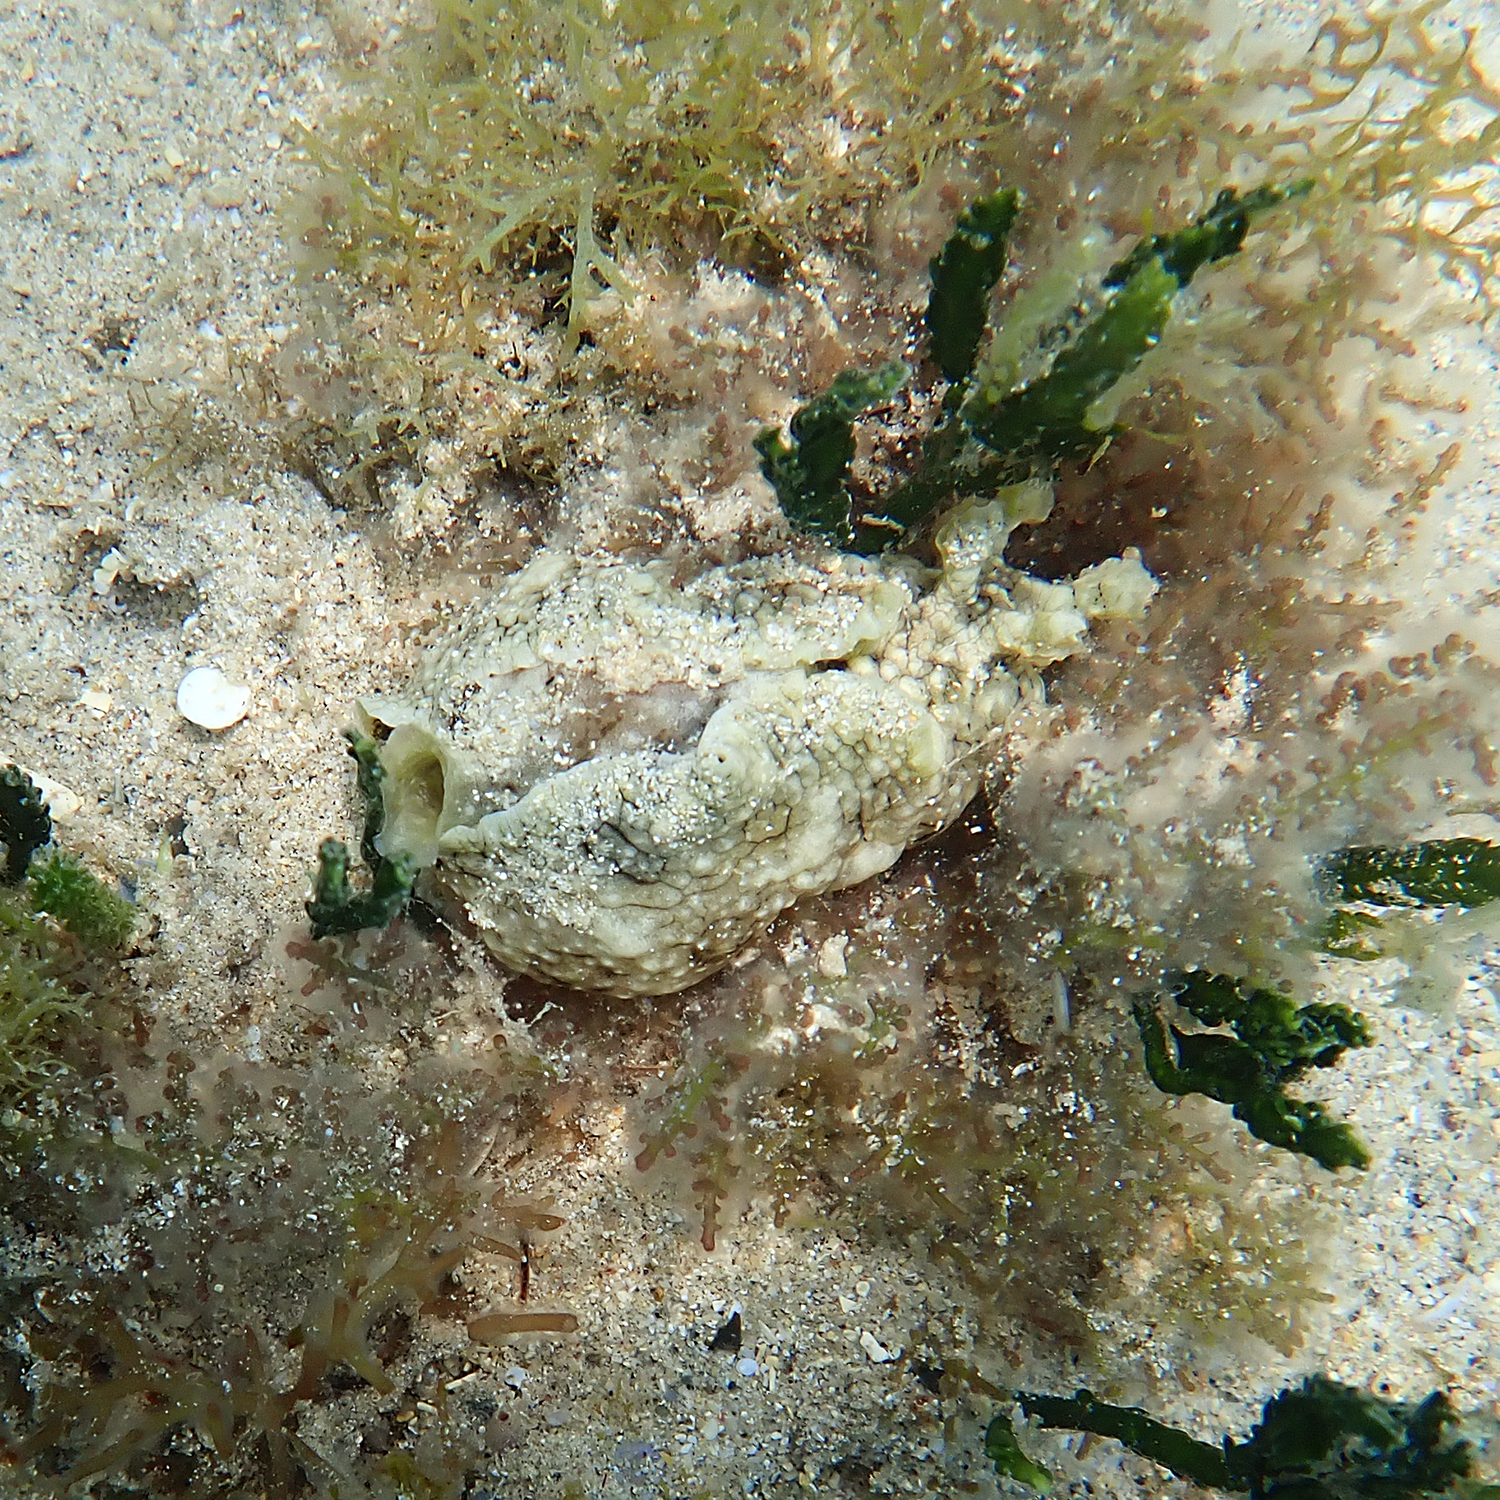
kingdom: Animalia
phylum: Mollusca
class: Gastropoda
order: Aplysiida
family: Aplysiidae
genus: Aplysia
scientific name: Aplysia argus
